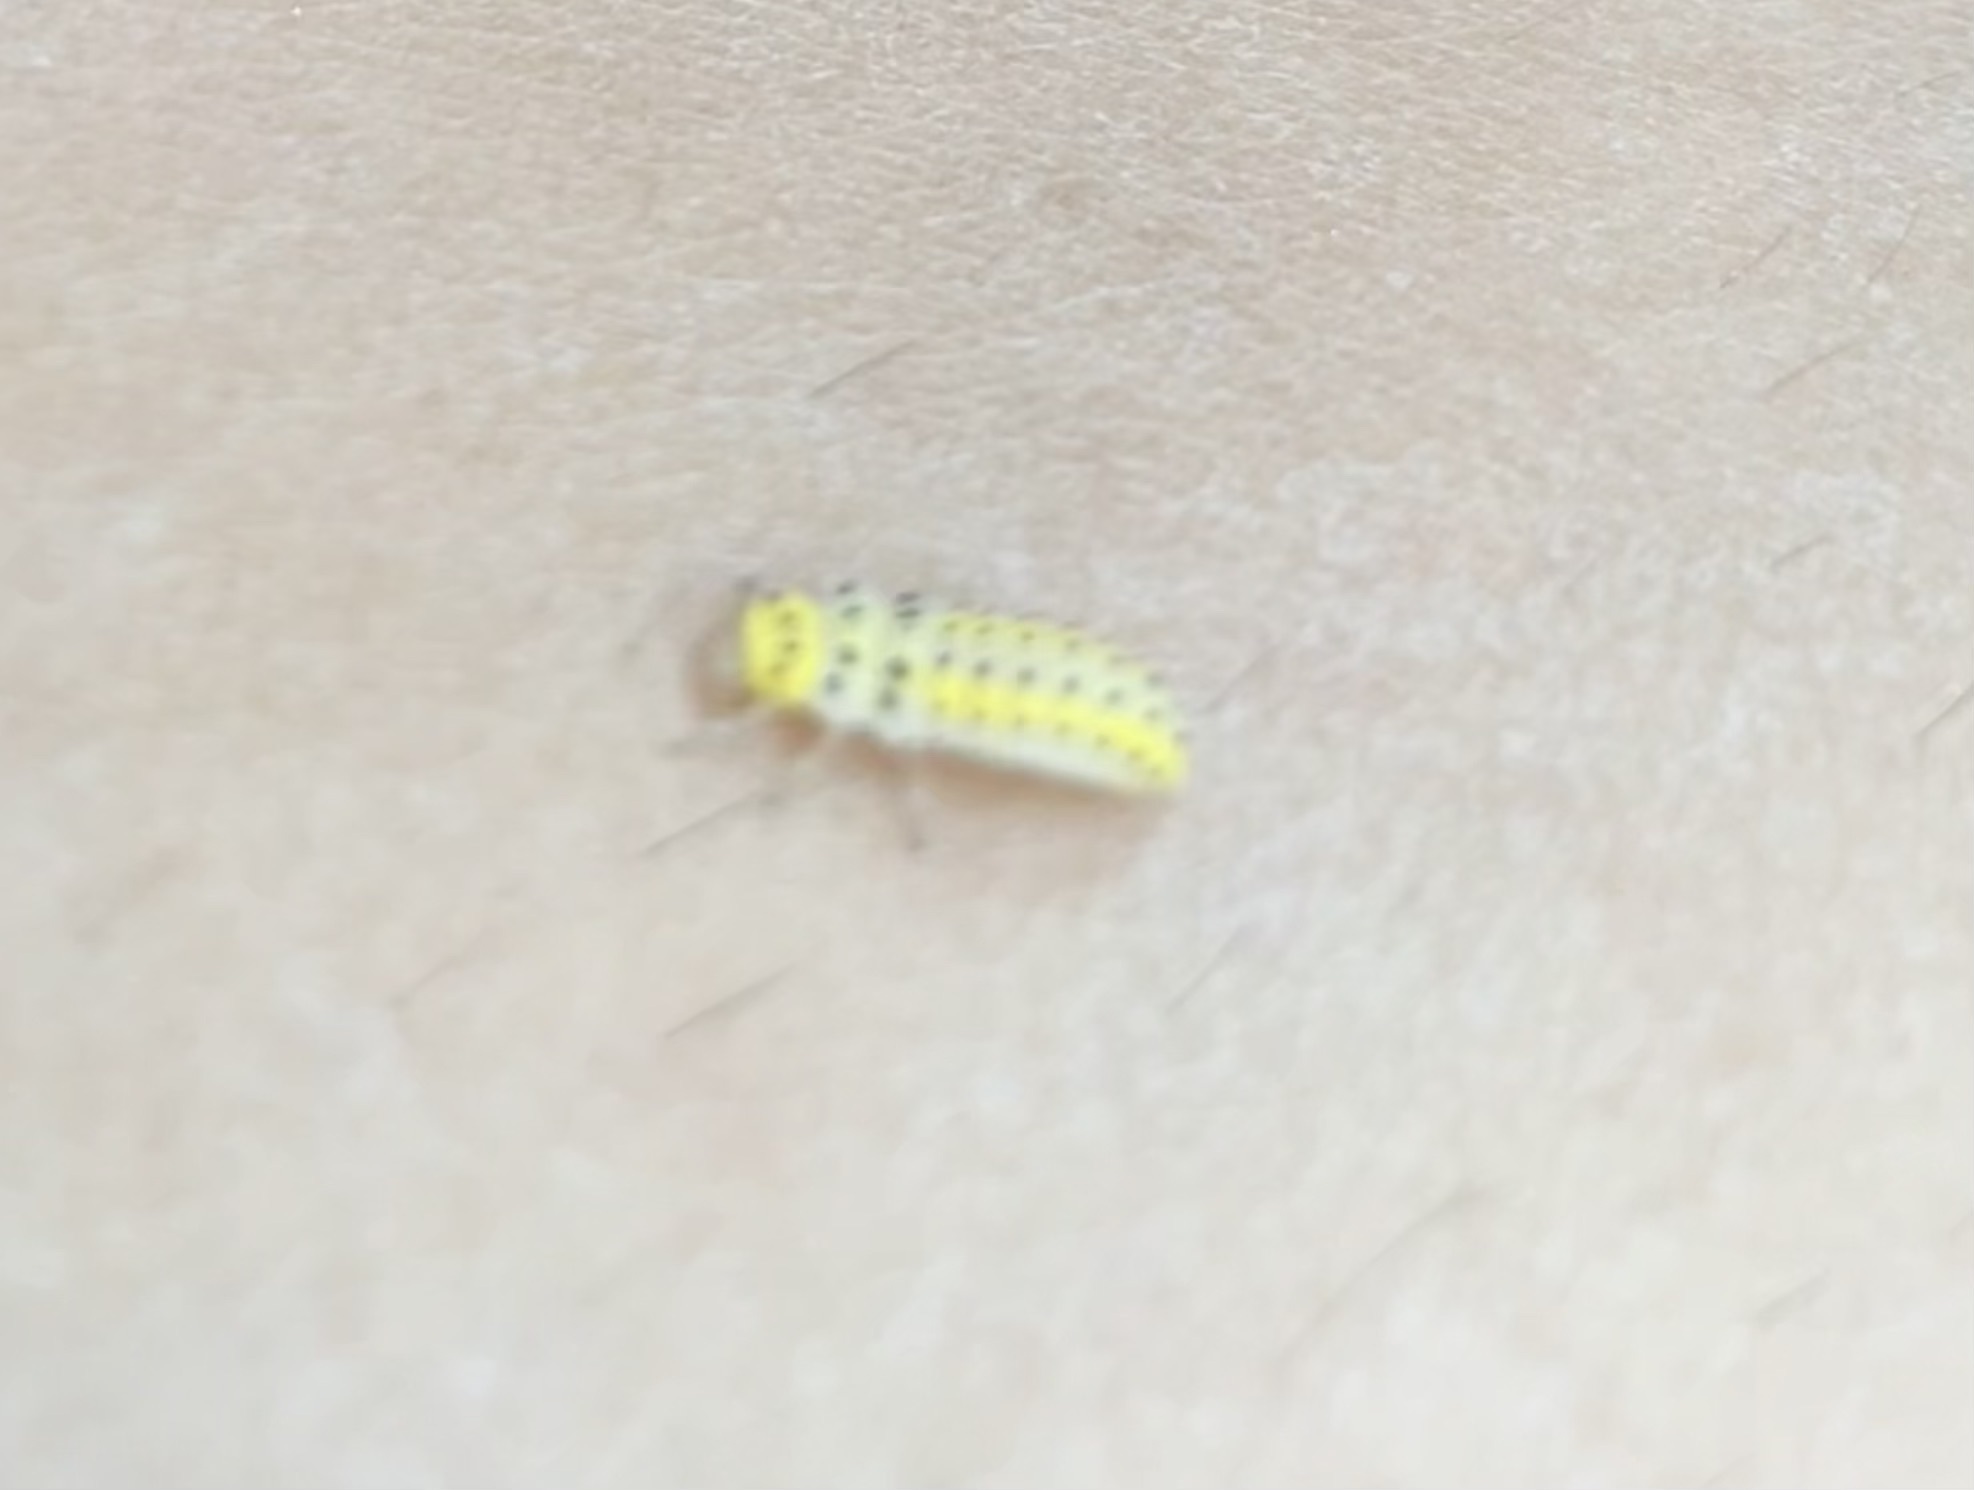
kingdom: Animalia
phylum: Arthropoda
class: Insecta
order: Coleoptera
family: Coccinellidae
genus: Halyzia
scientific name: Halyzia sedecimguttata
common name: Orange ladybird
